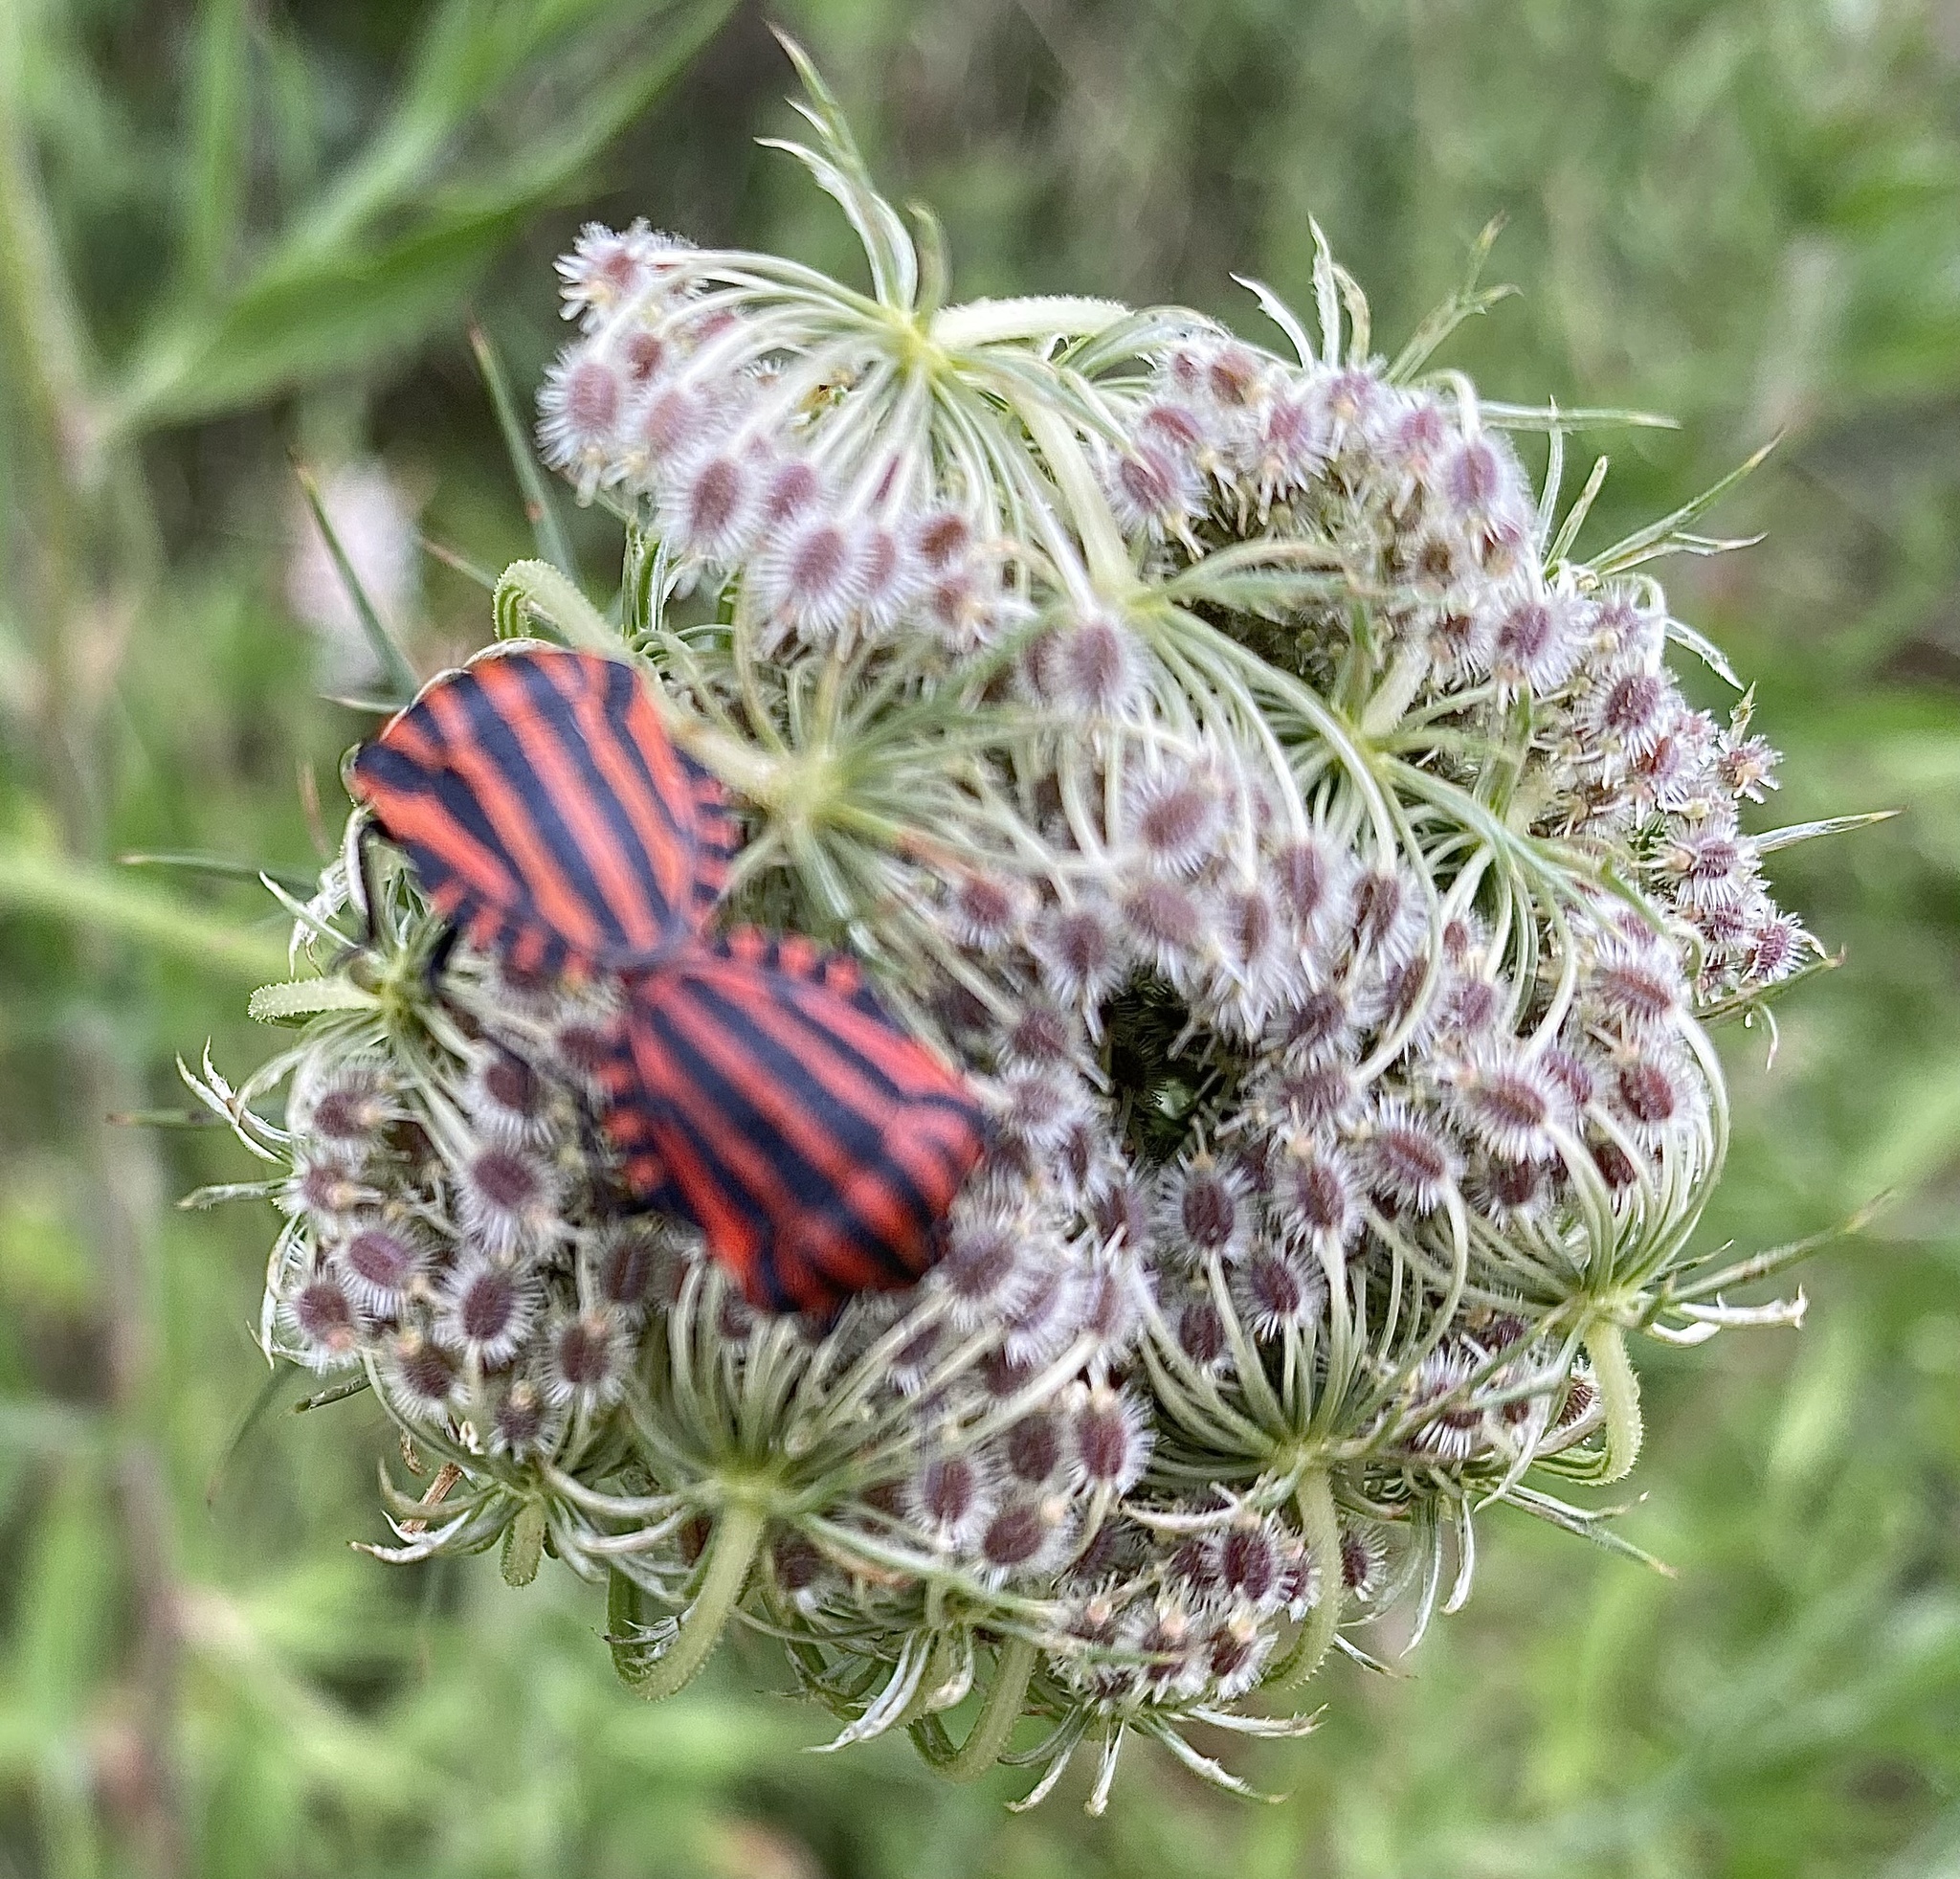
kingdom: Animalia
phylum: Arthropoda
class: Insecta
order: Hemiptera
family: Pentatomidae
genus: Graphosoma
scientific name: Graphosoma italicum
